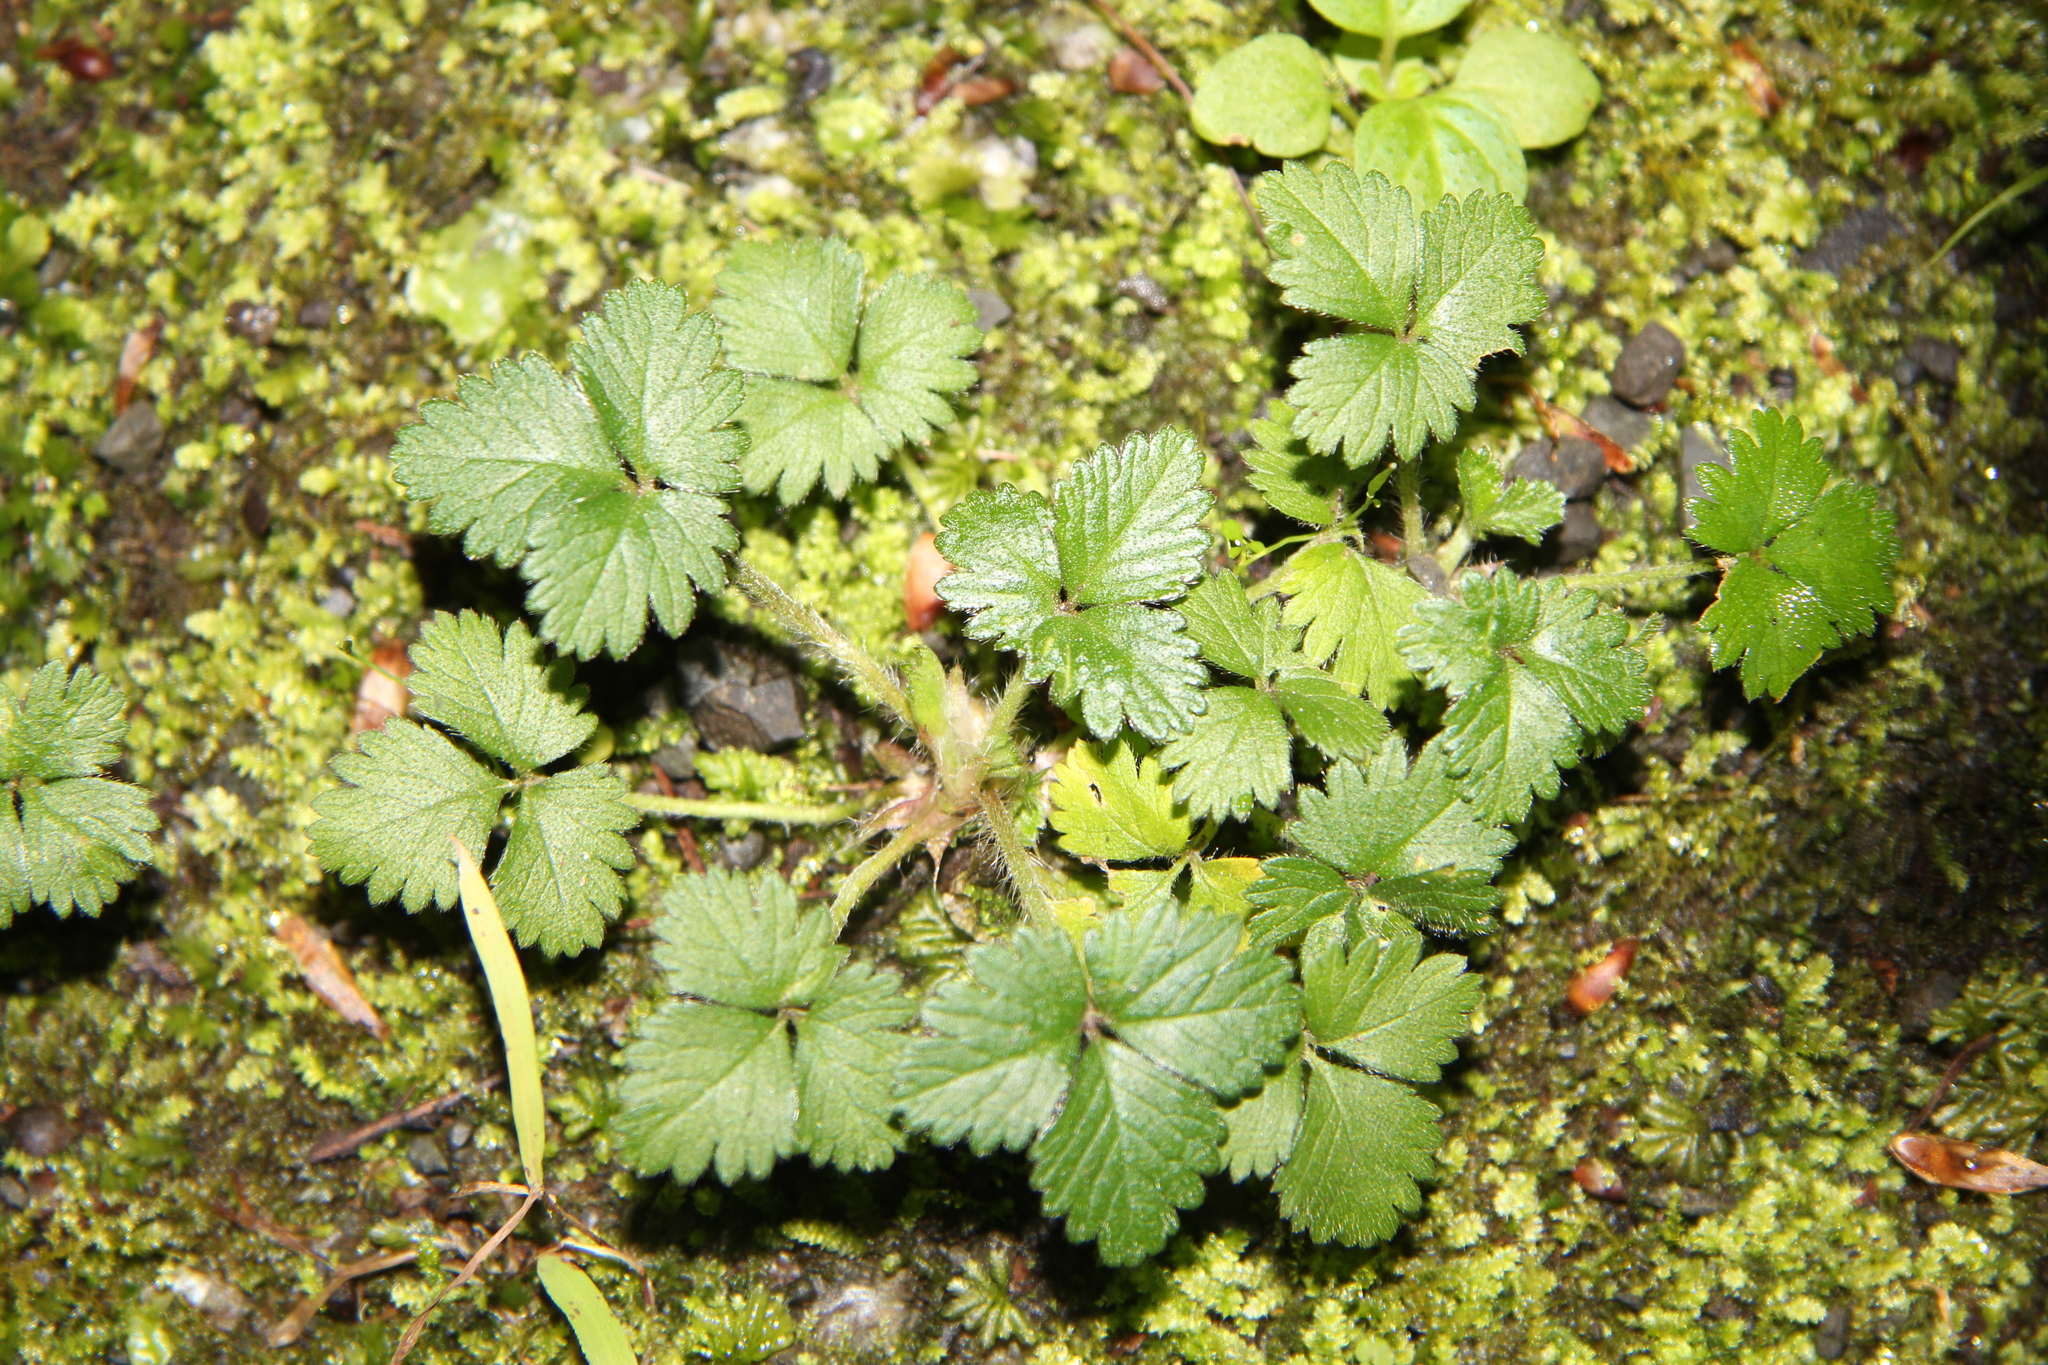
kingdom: Plantae
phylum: Tracheophyta
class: Magnoliopsida
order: Rosales
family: Rosaceae
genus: Potentilla
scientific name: Potentilla indica
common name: Yellow-flowered strawberry
